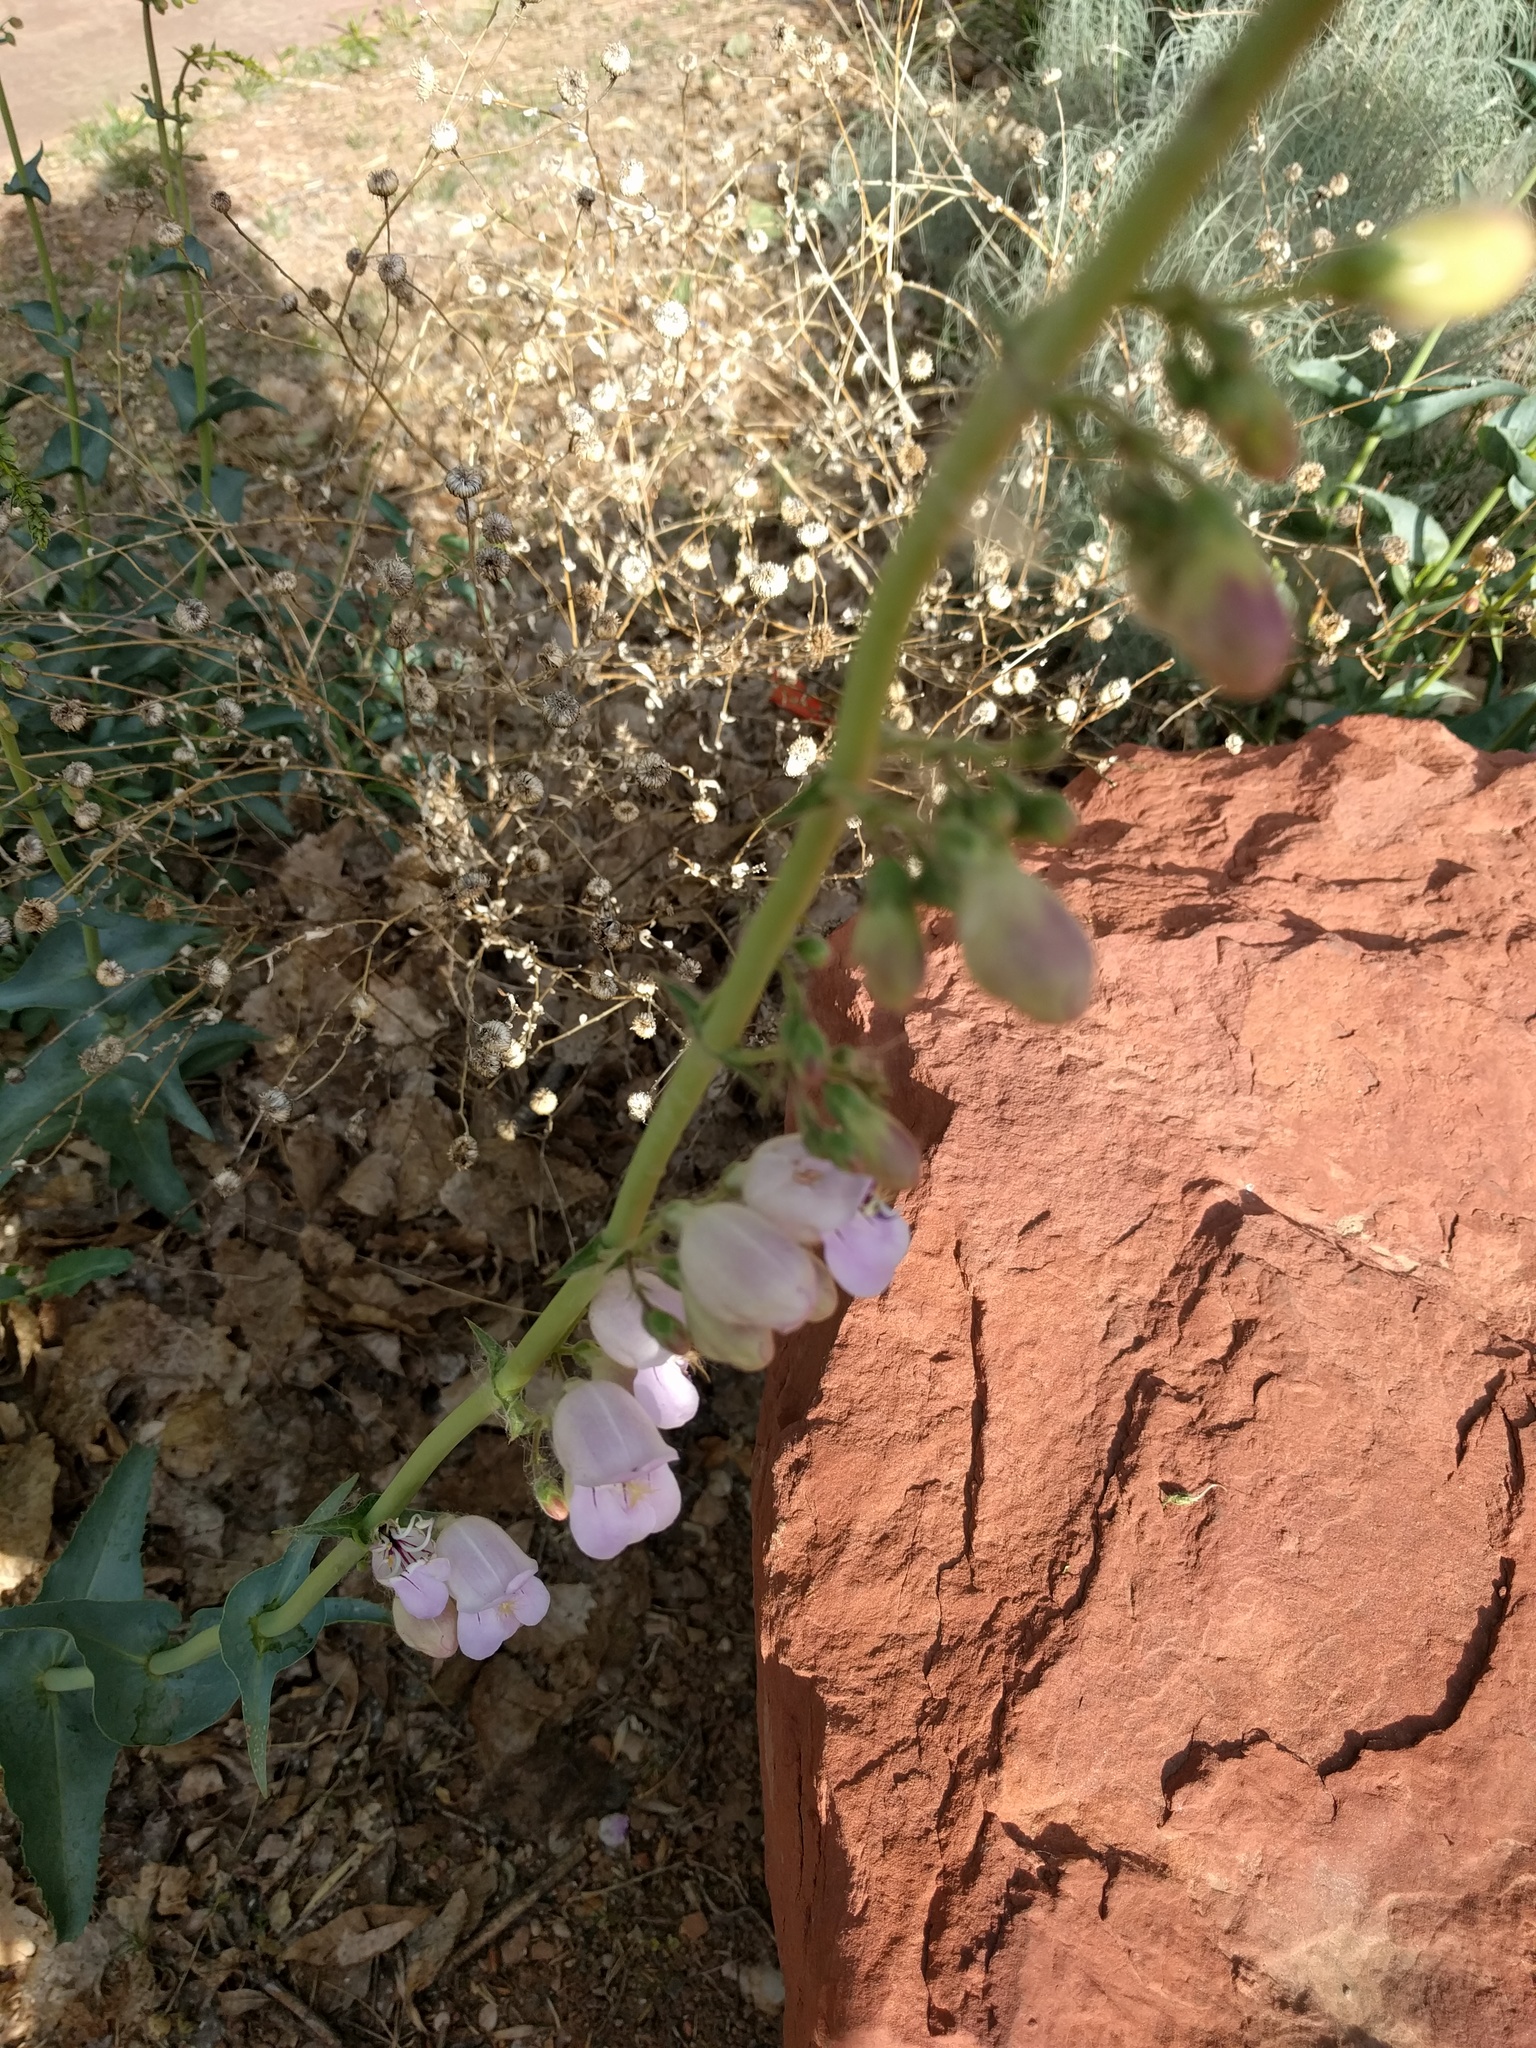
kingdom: Plantae
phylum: Tracheophyta
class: Magnoliopsida
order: Lamiales
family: Plantaginaceae
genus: Penstemon
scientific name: Penstemon palmeri
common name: Palmer penstemon
